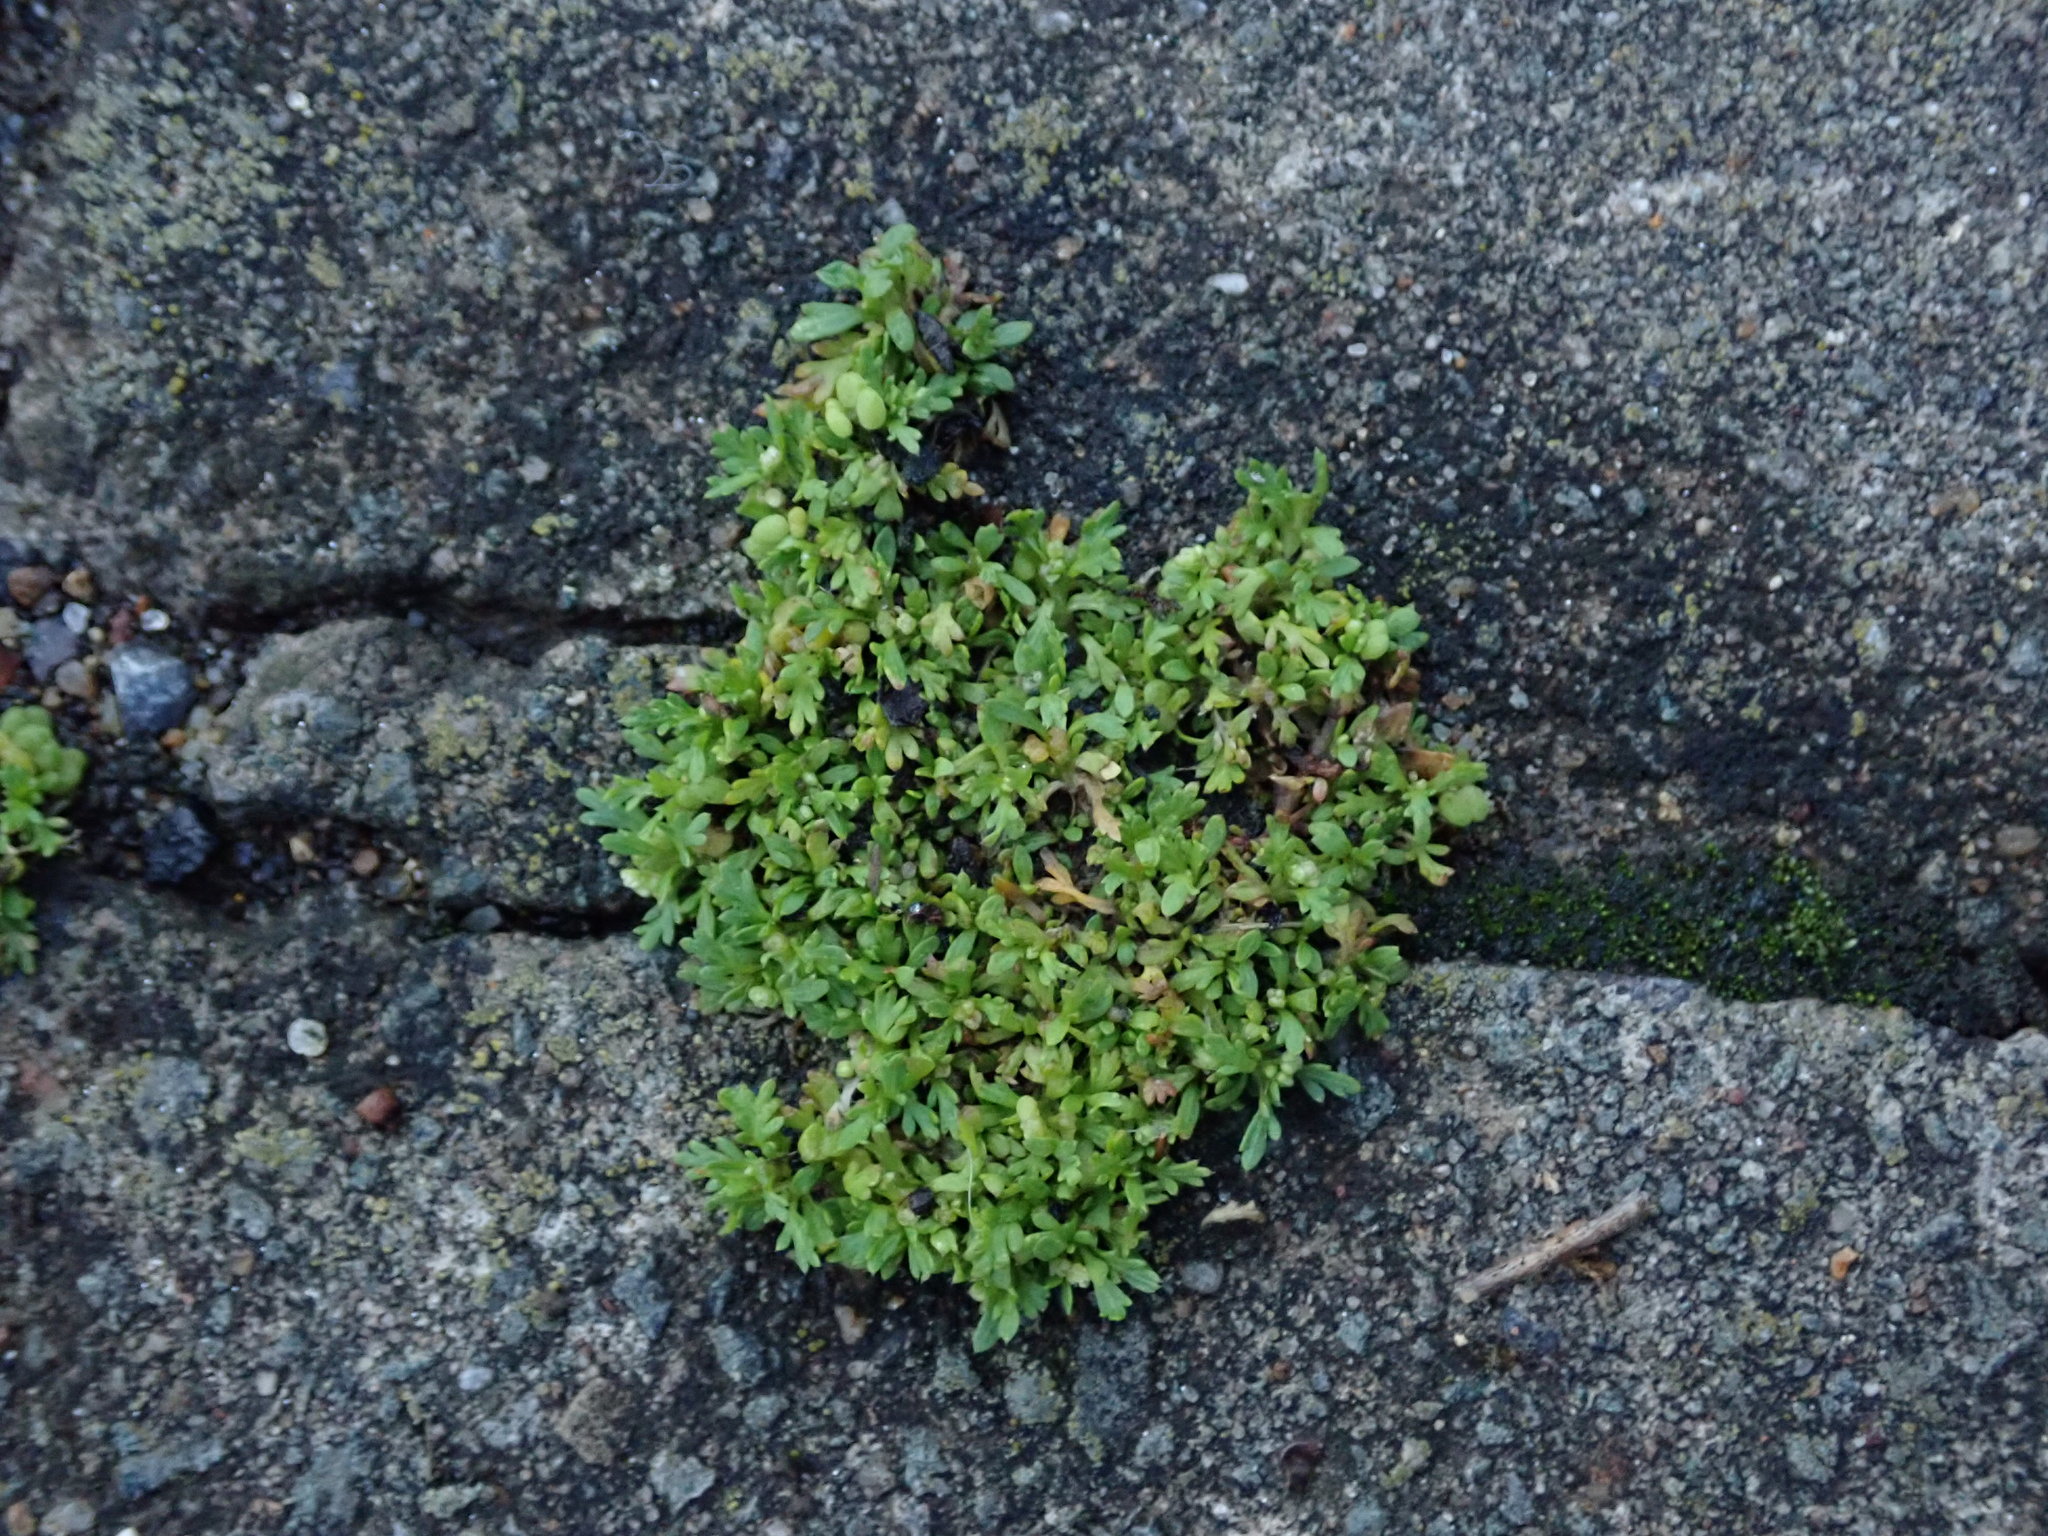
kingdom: Plantae
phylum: Tracheophyta
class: Magnoliopsida
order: Brassicales
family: Brassicaceae
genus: Lepidium
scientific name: Lepidium didymum
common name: Lesser swinecress
